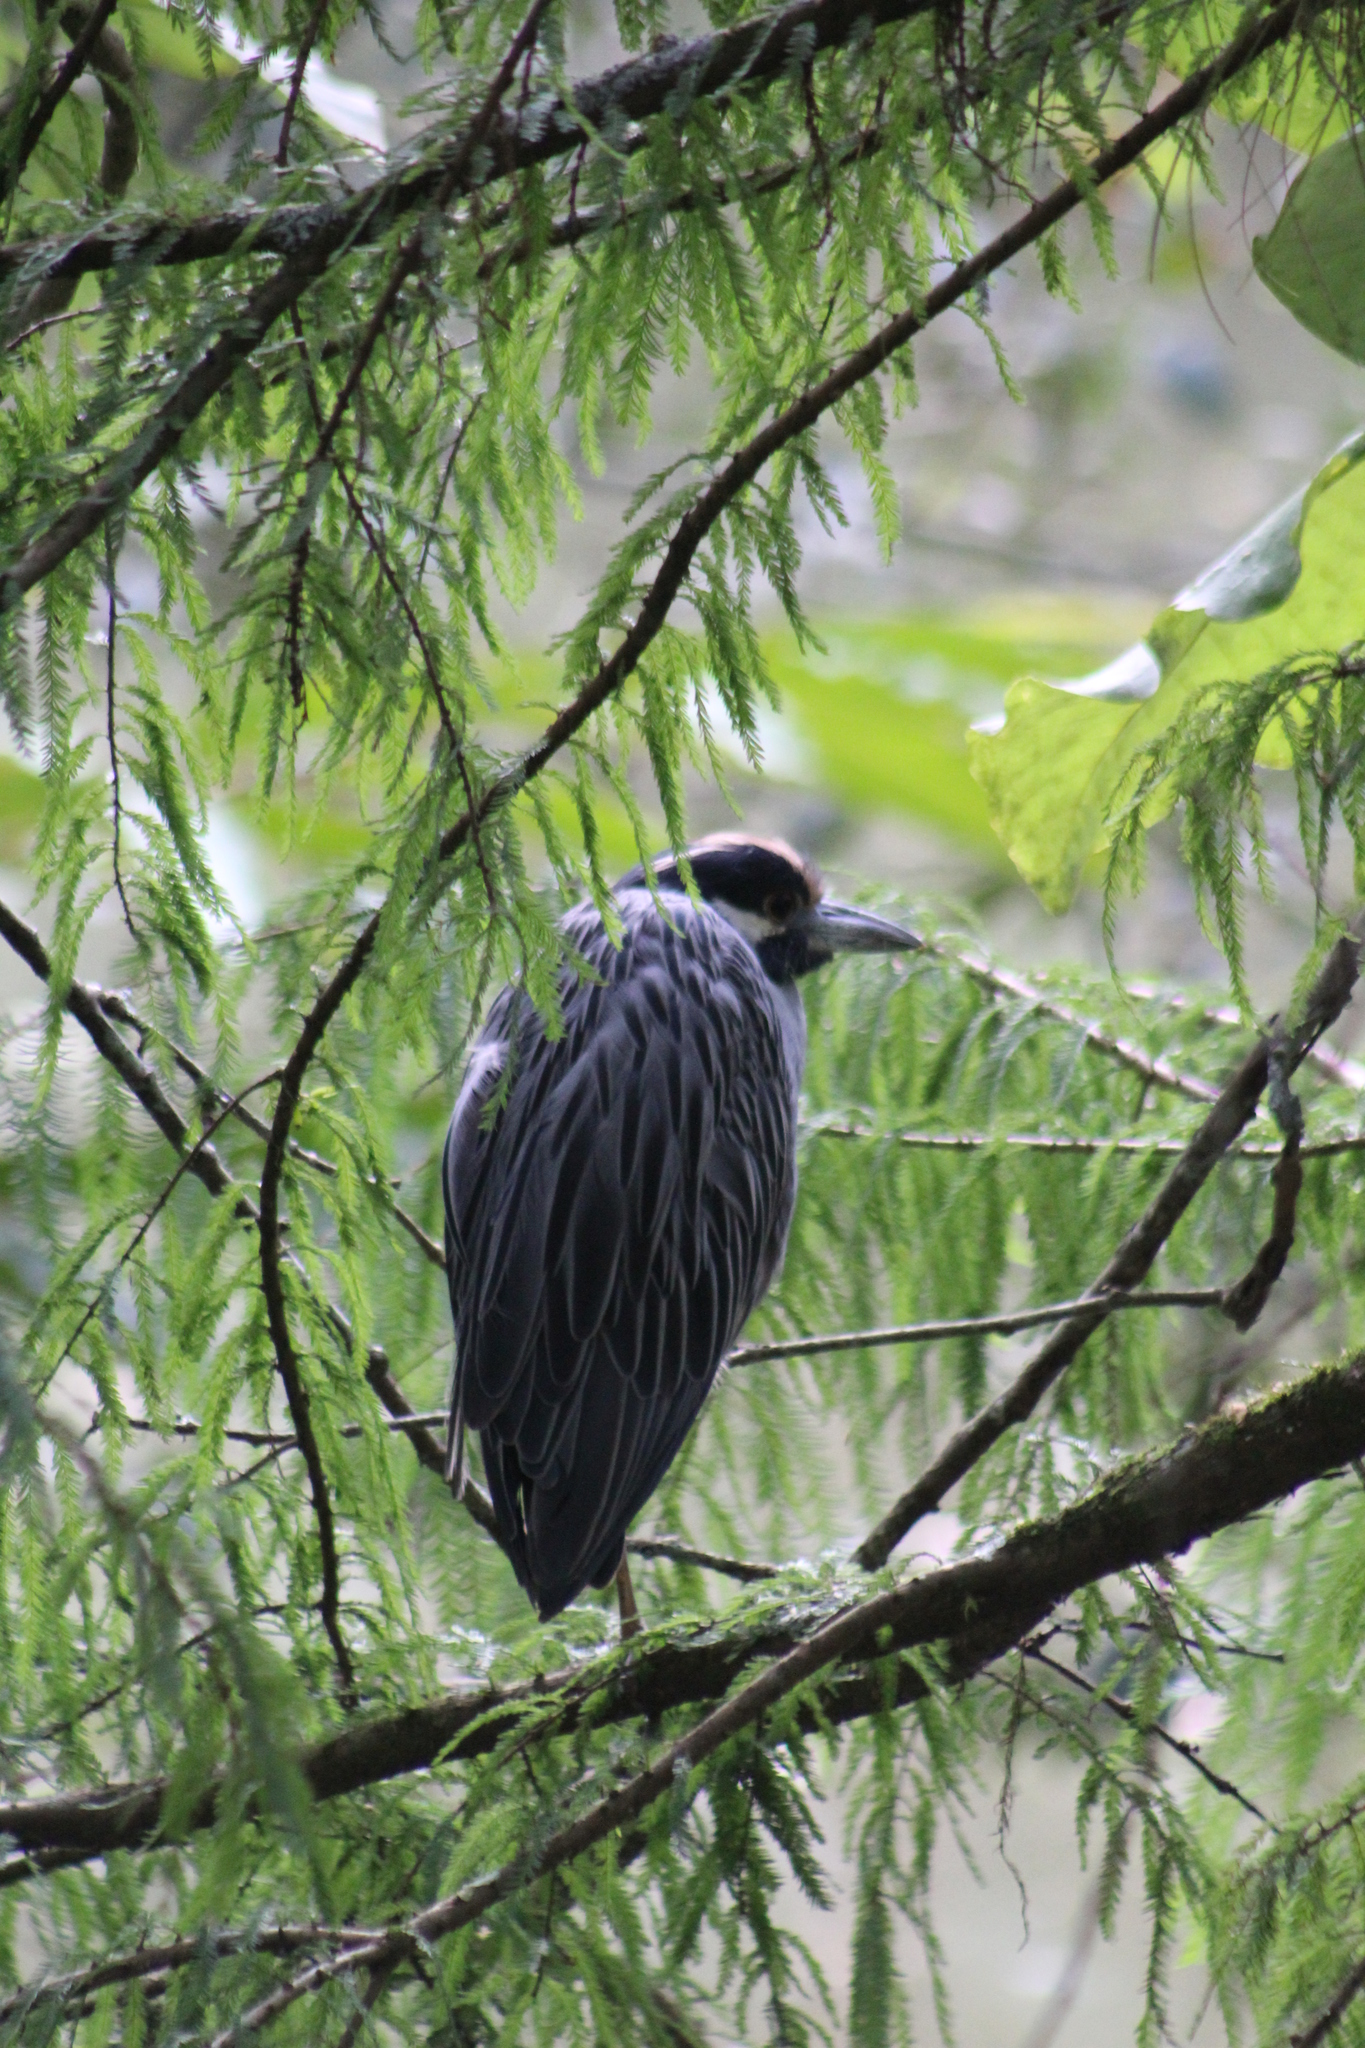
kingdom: Animalia
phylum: Chordata
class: Aves
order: Pelecaniformes
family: Ardeidae
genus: Nyctanassa
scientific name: Nyctanassa violacea
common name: Yellow-crowned night heron
